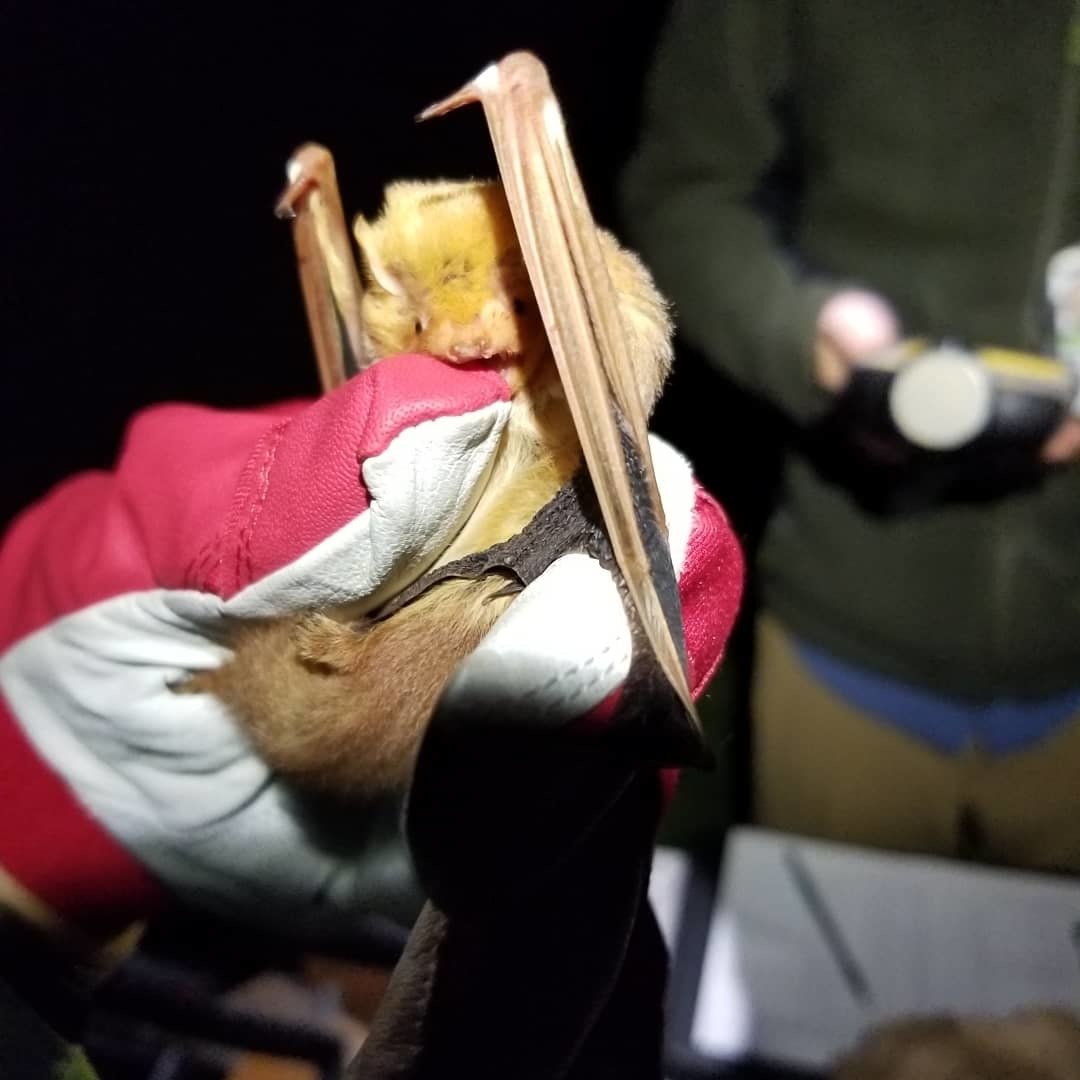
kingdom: Animalia
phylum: Chordata
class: Mammalia
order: Chiroptera
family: Vespertilionidae
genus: Lasiurus
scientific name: Lasiurus borealis
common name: Eastern red bat
